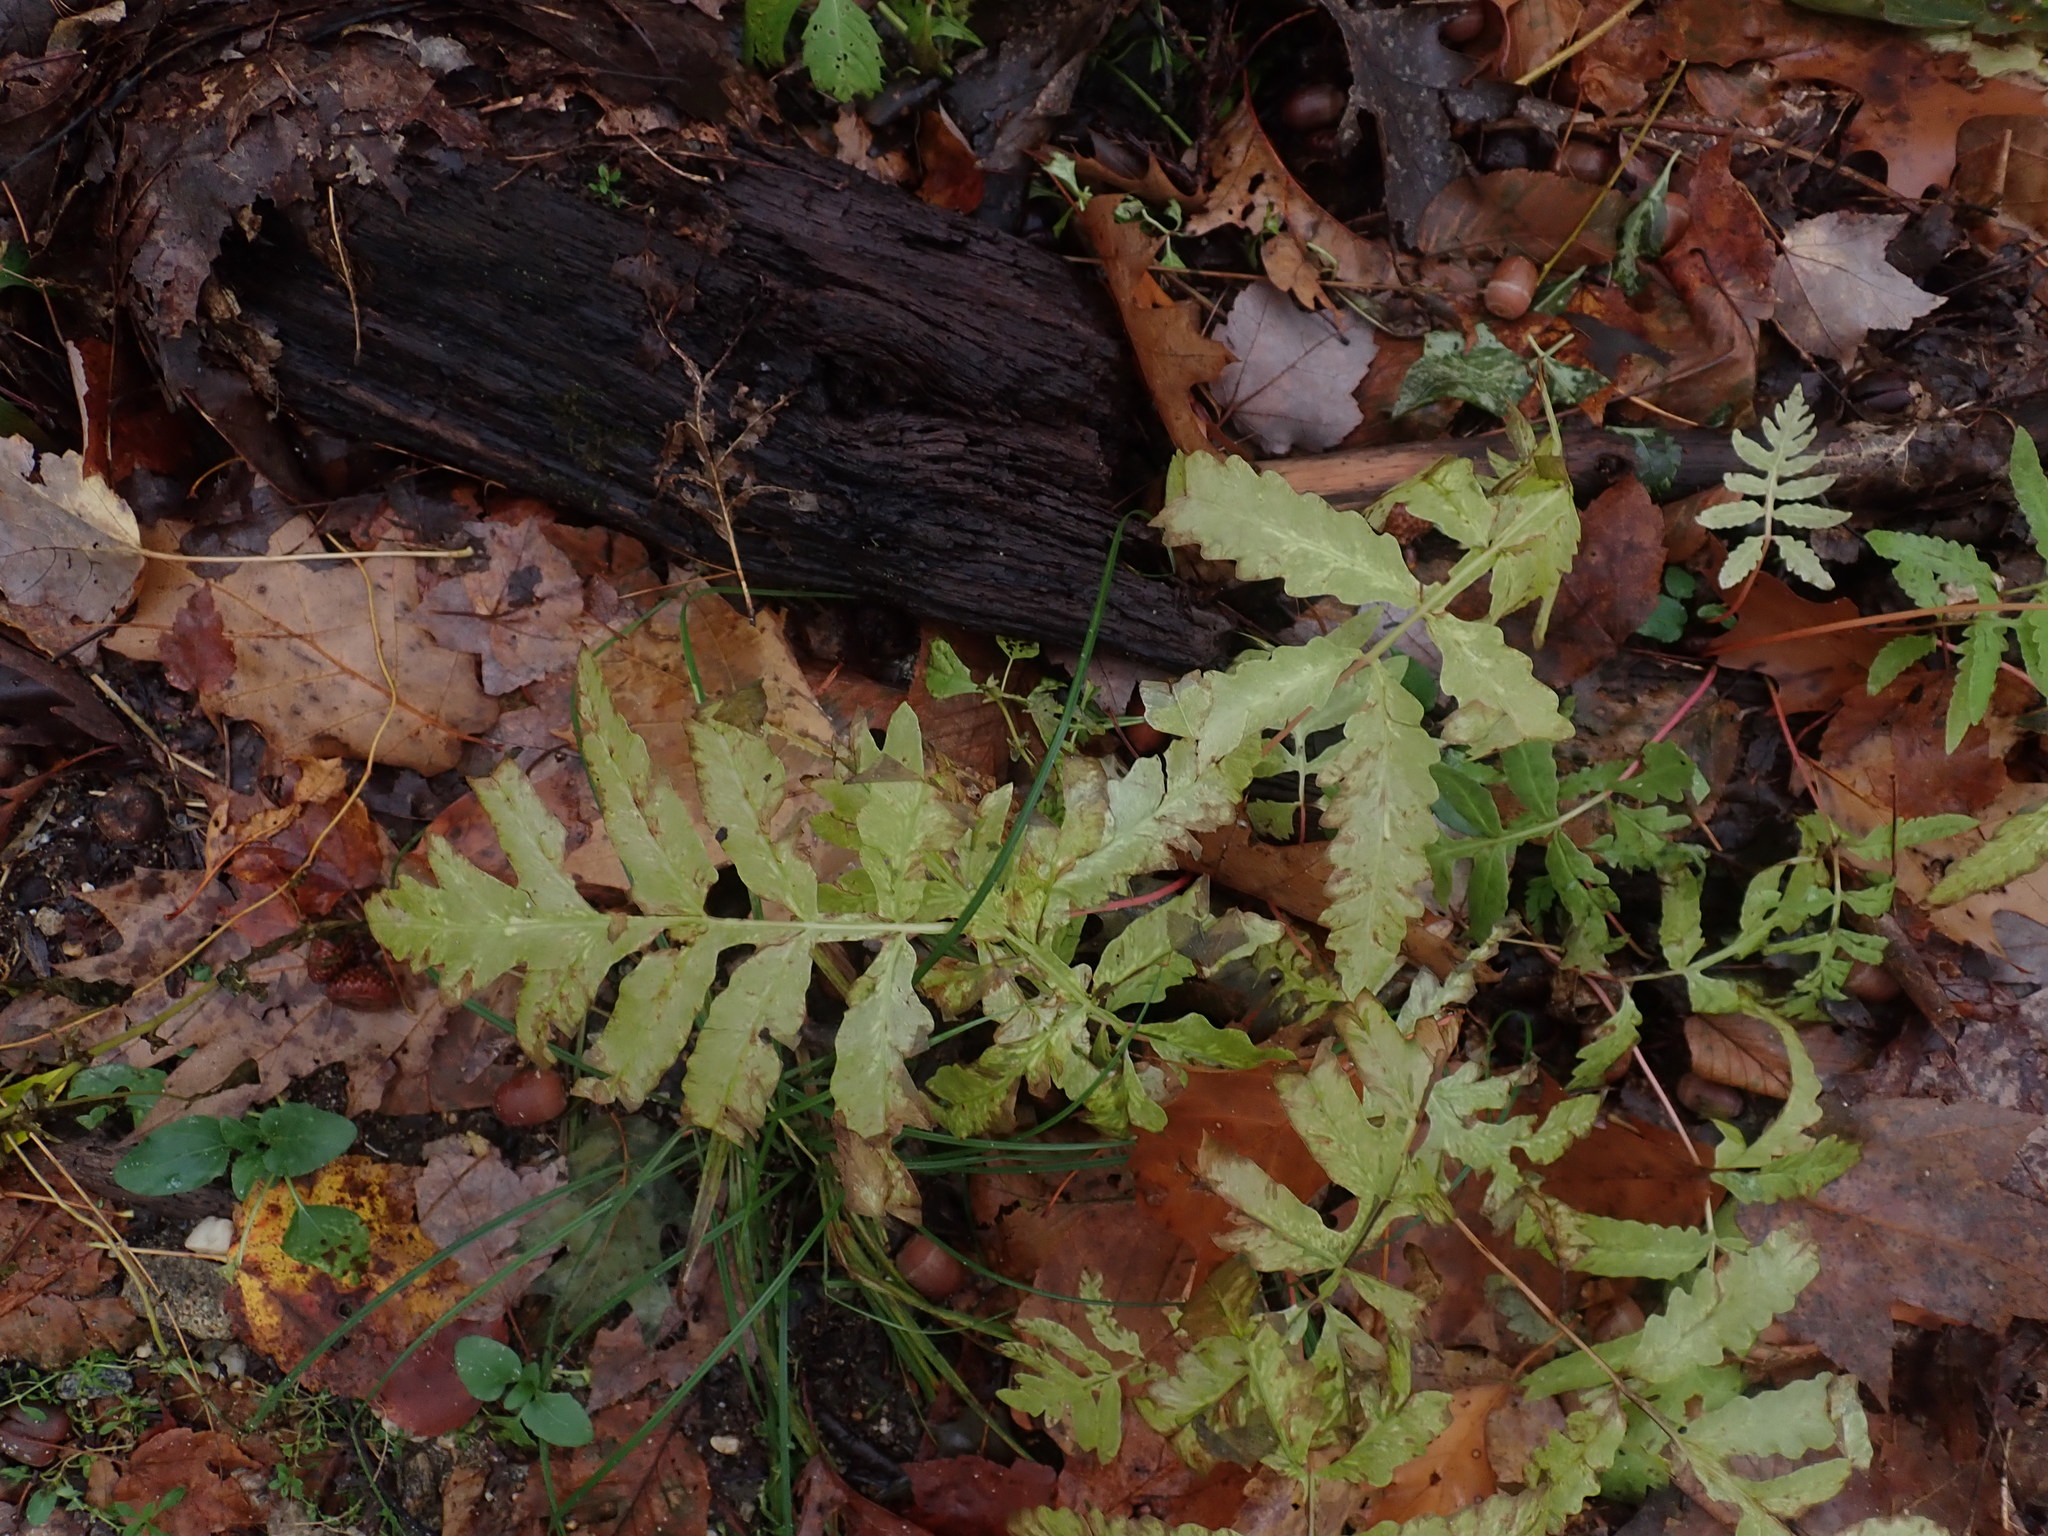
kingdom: Plantae
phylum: Tracheophyta
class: Polypodiopsida
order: Polypodiales
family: Onocleaceae
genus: Onoclea
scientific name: Onoclea sensibilis
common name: Sensitive fern
